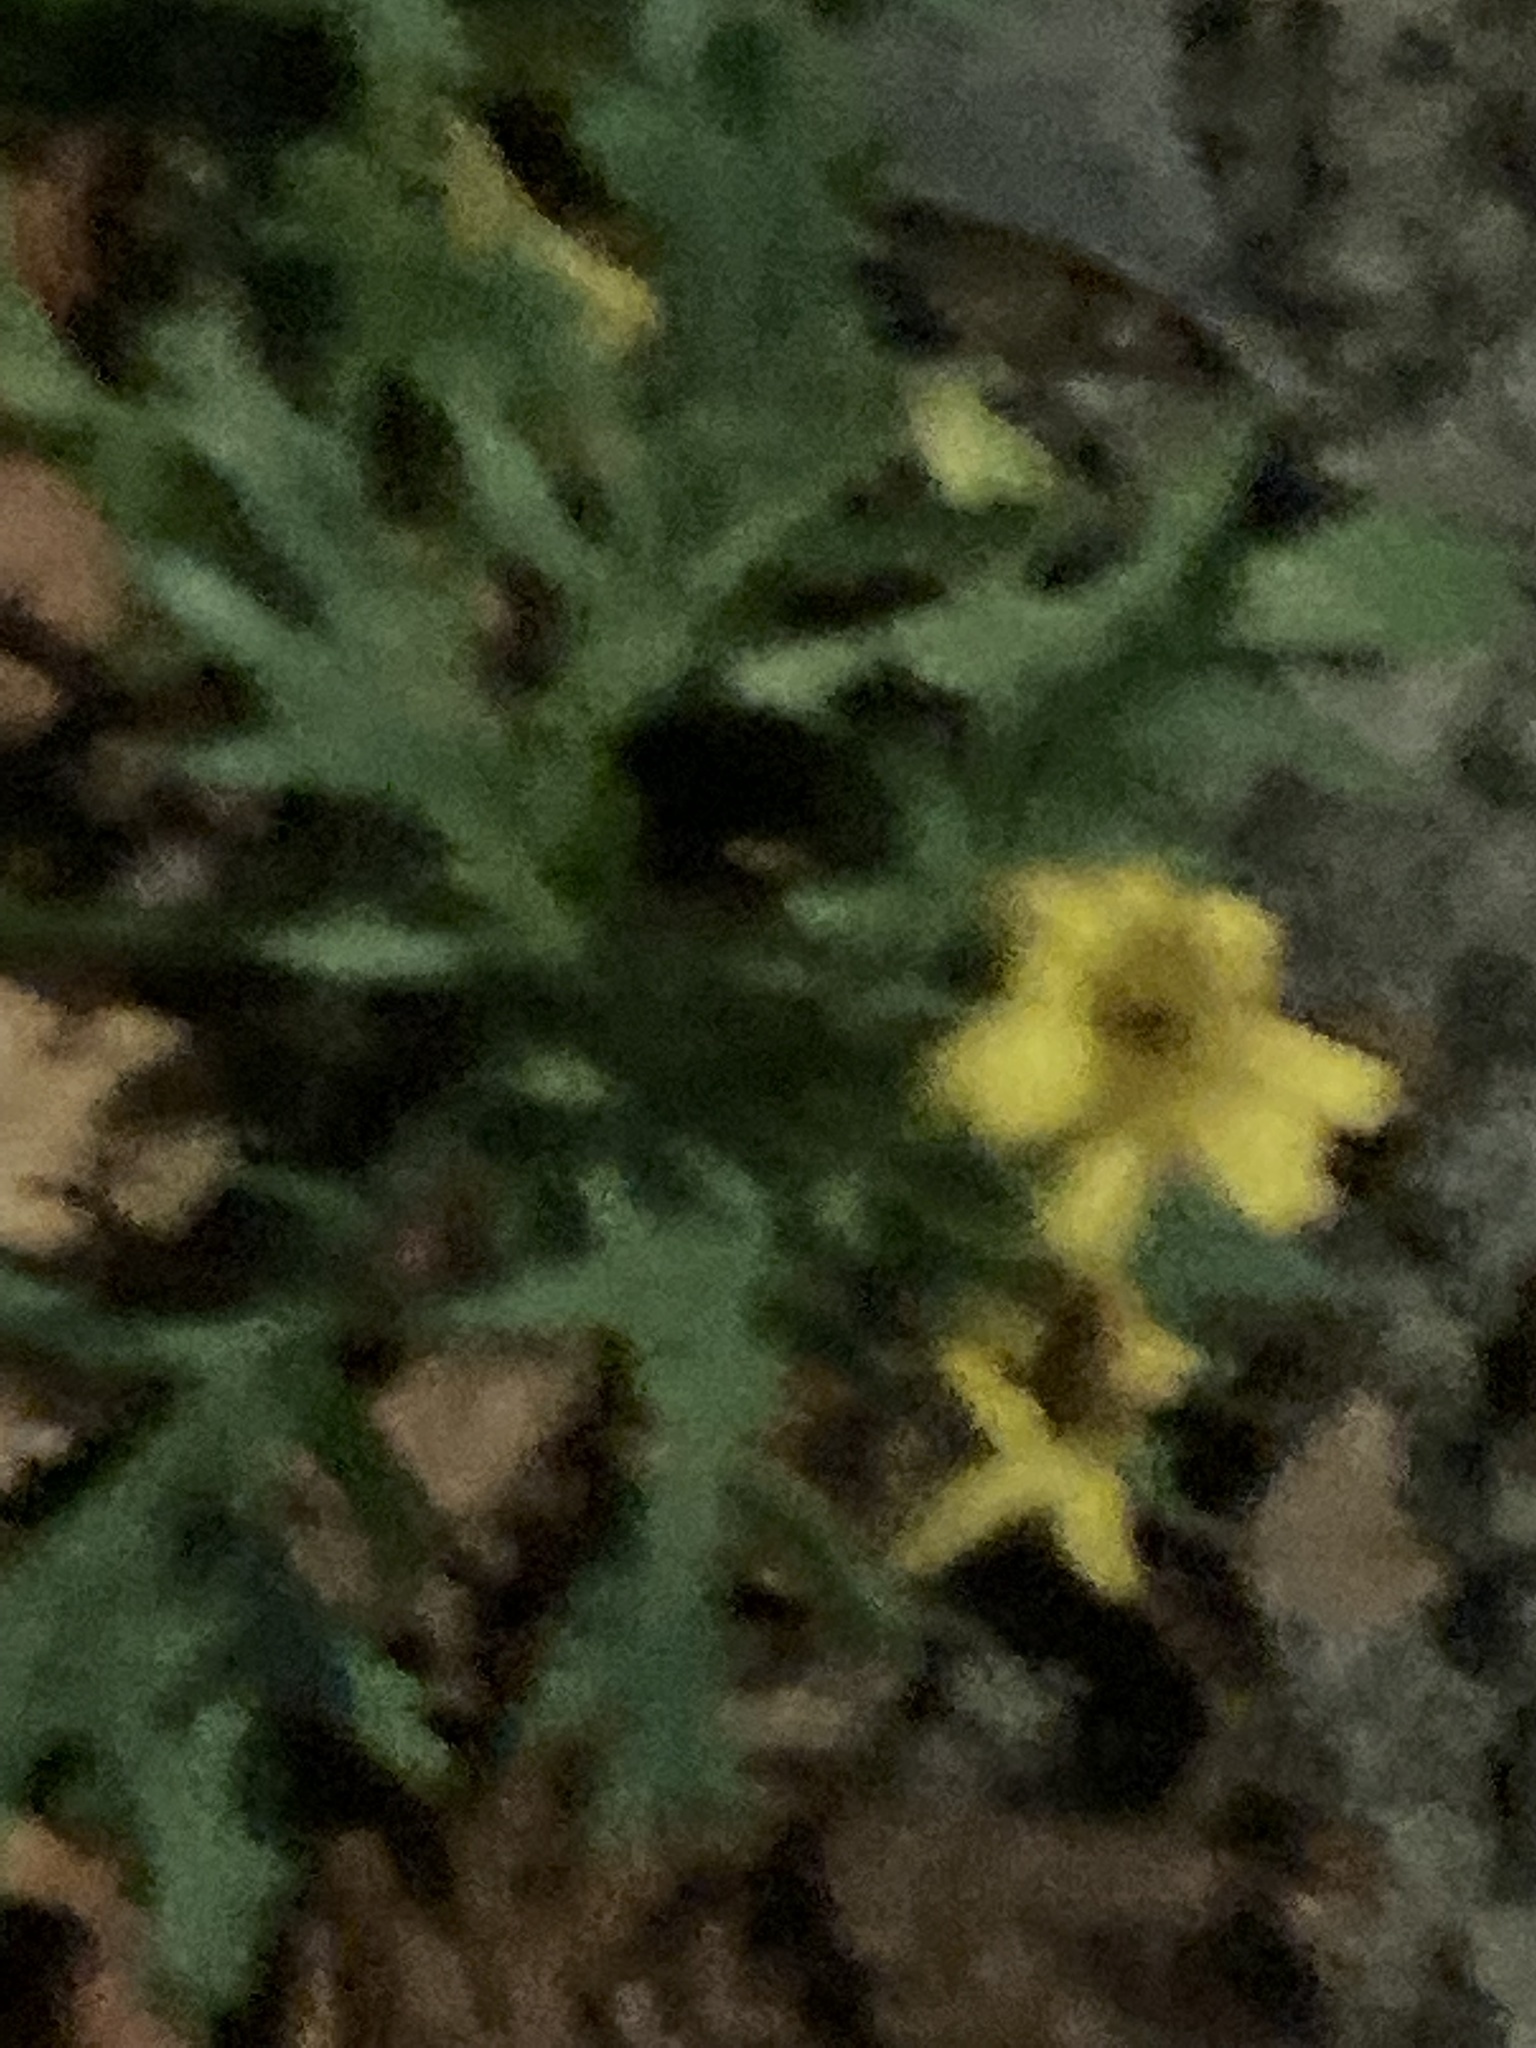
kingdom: Plantae
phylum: Tracheophyta
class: Magnoliopsida
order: Asterales
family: Asteraceae
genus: Senecio
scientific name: Senecio squalidus
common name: Oxford ragwort
